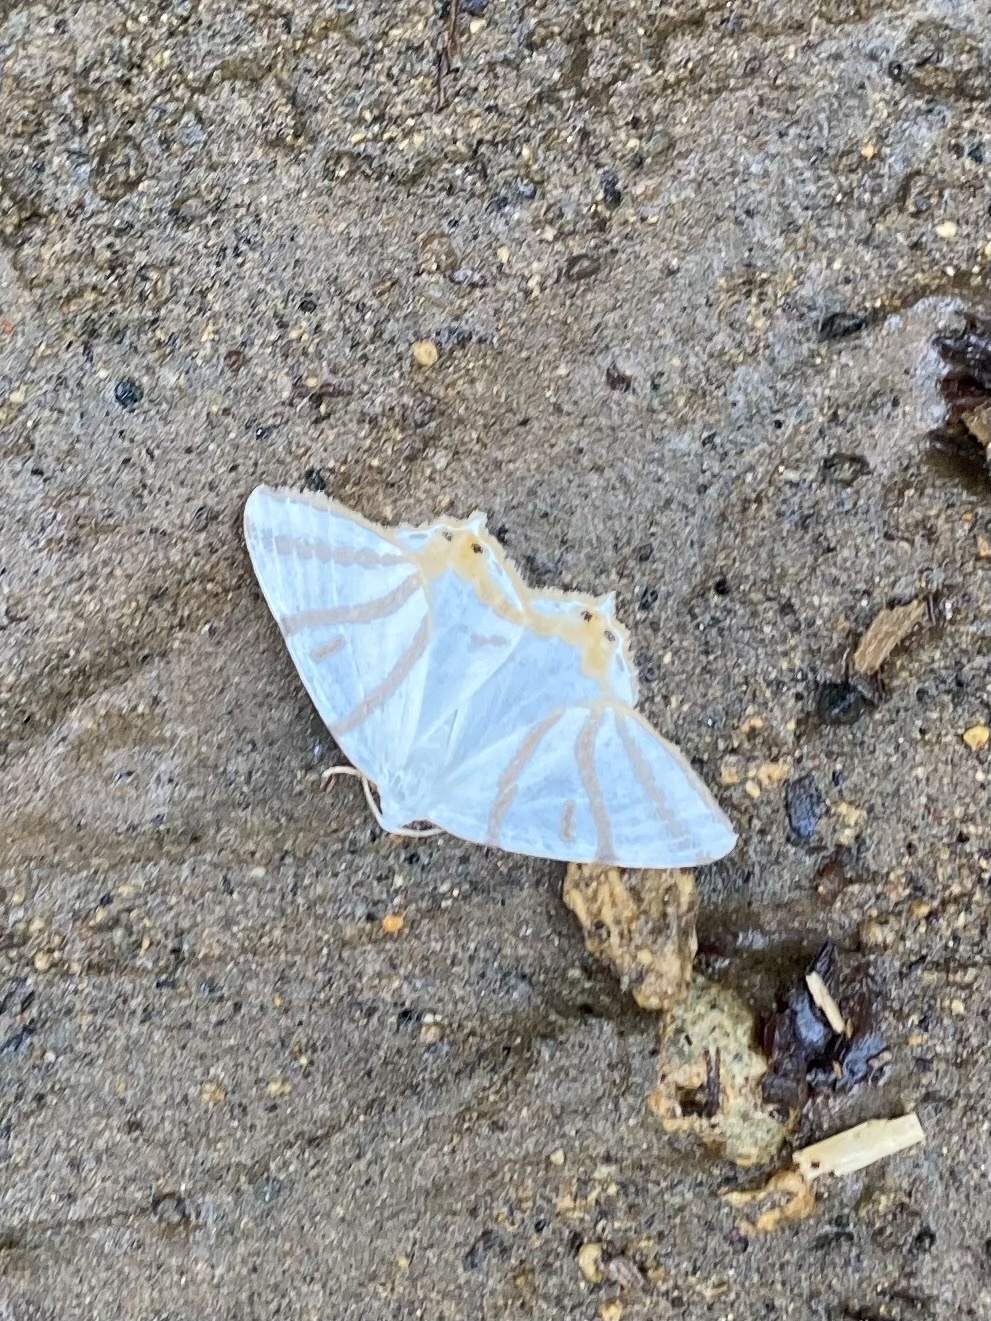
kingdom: Animalia
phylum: Arthropoda
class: Insecta
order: Lepidoptera
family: Geometridae
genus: Tristrophis
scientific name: Tristrophis veneris
